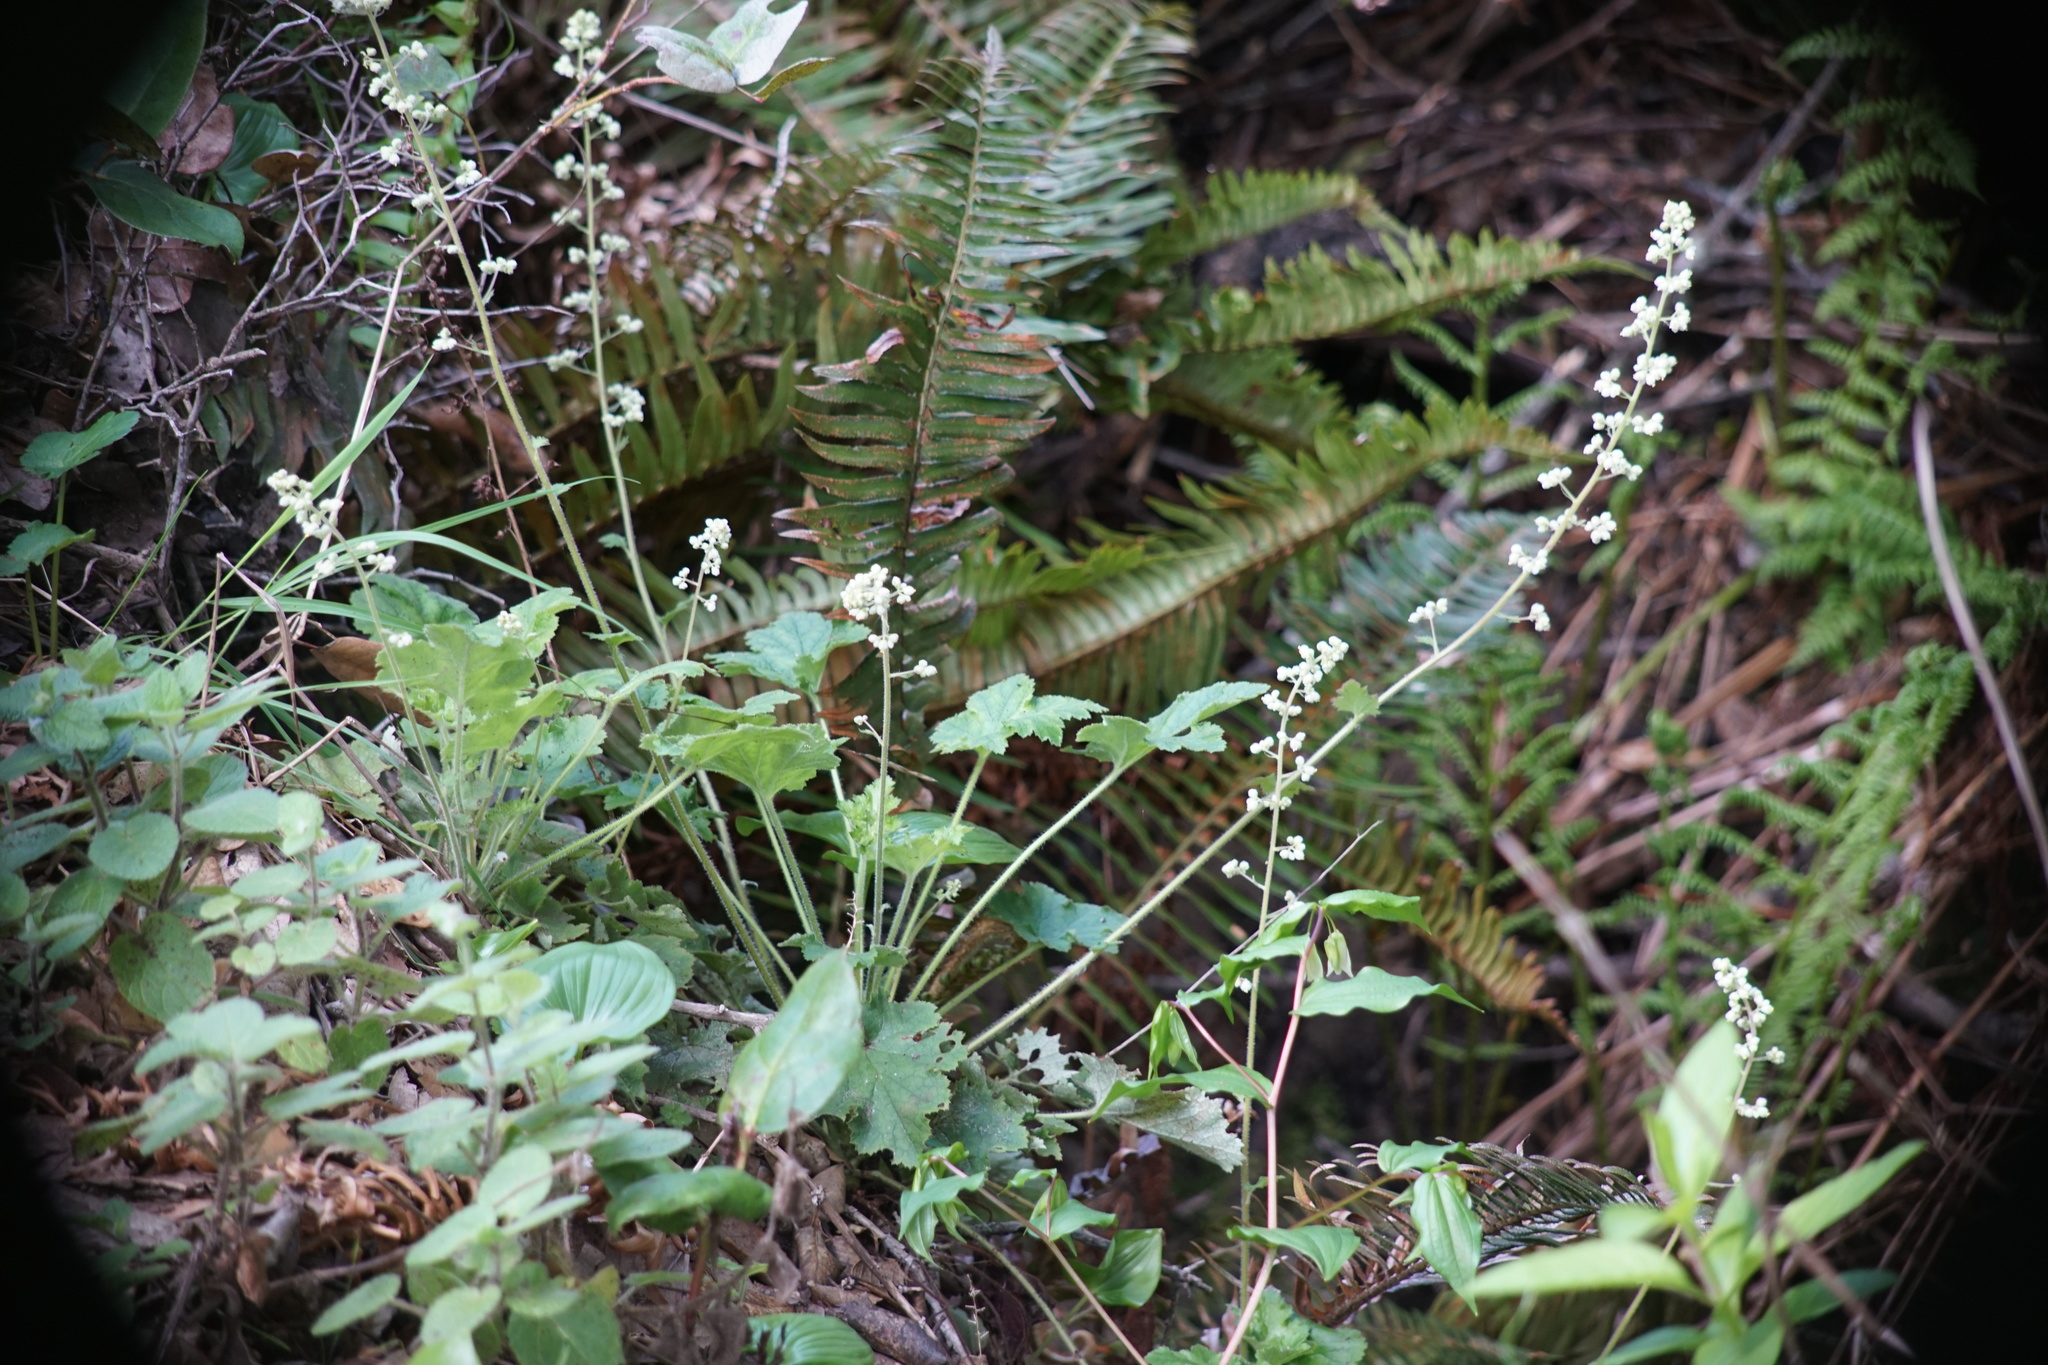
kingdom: Plantae
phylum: Tracheophyta
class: Magnoliopsida
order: Saxifragales
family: Saxifragaceae
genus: Heuchera
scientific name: Heuchera pilosissima
